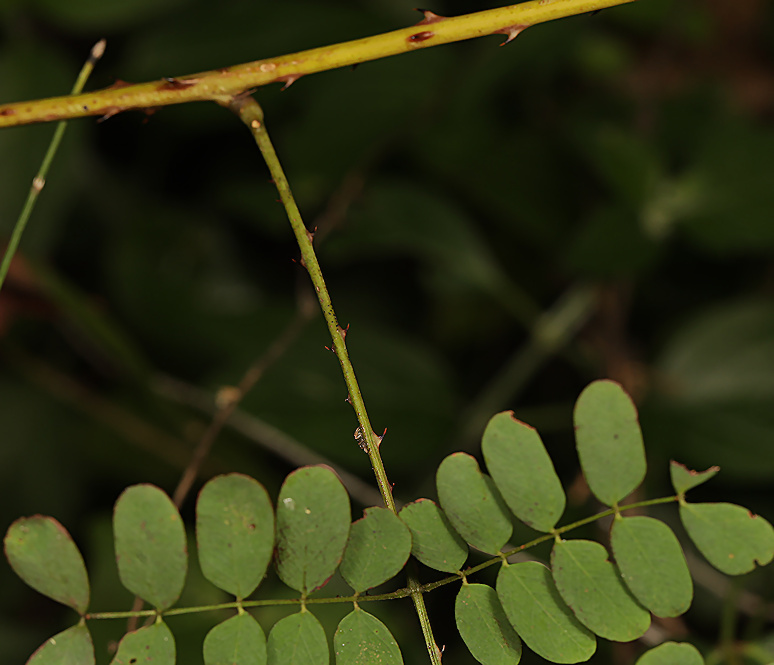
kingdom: Plantae
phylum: Tracheophyta
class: Magnoliopsida
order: Fabales
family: Fabaceae
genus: Adenopodia
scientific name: Adenopodia spicata
